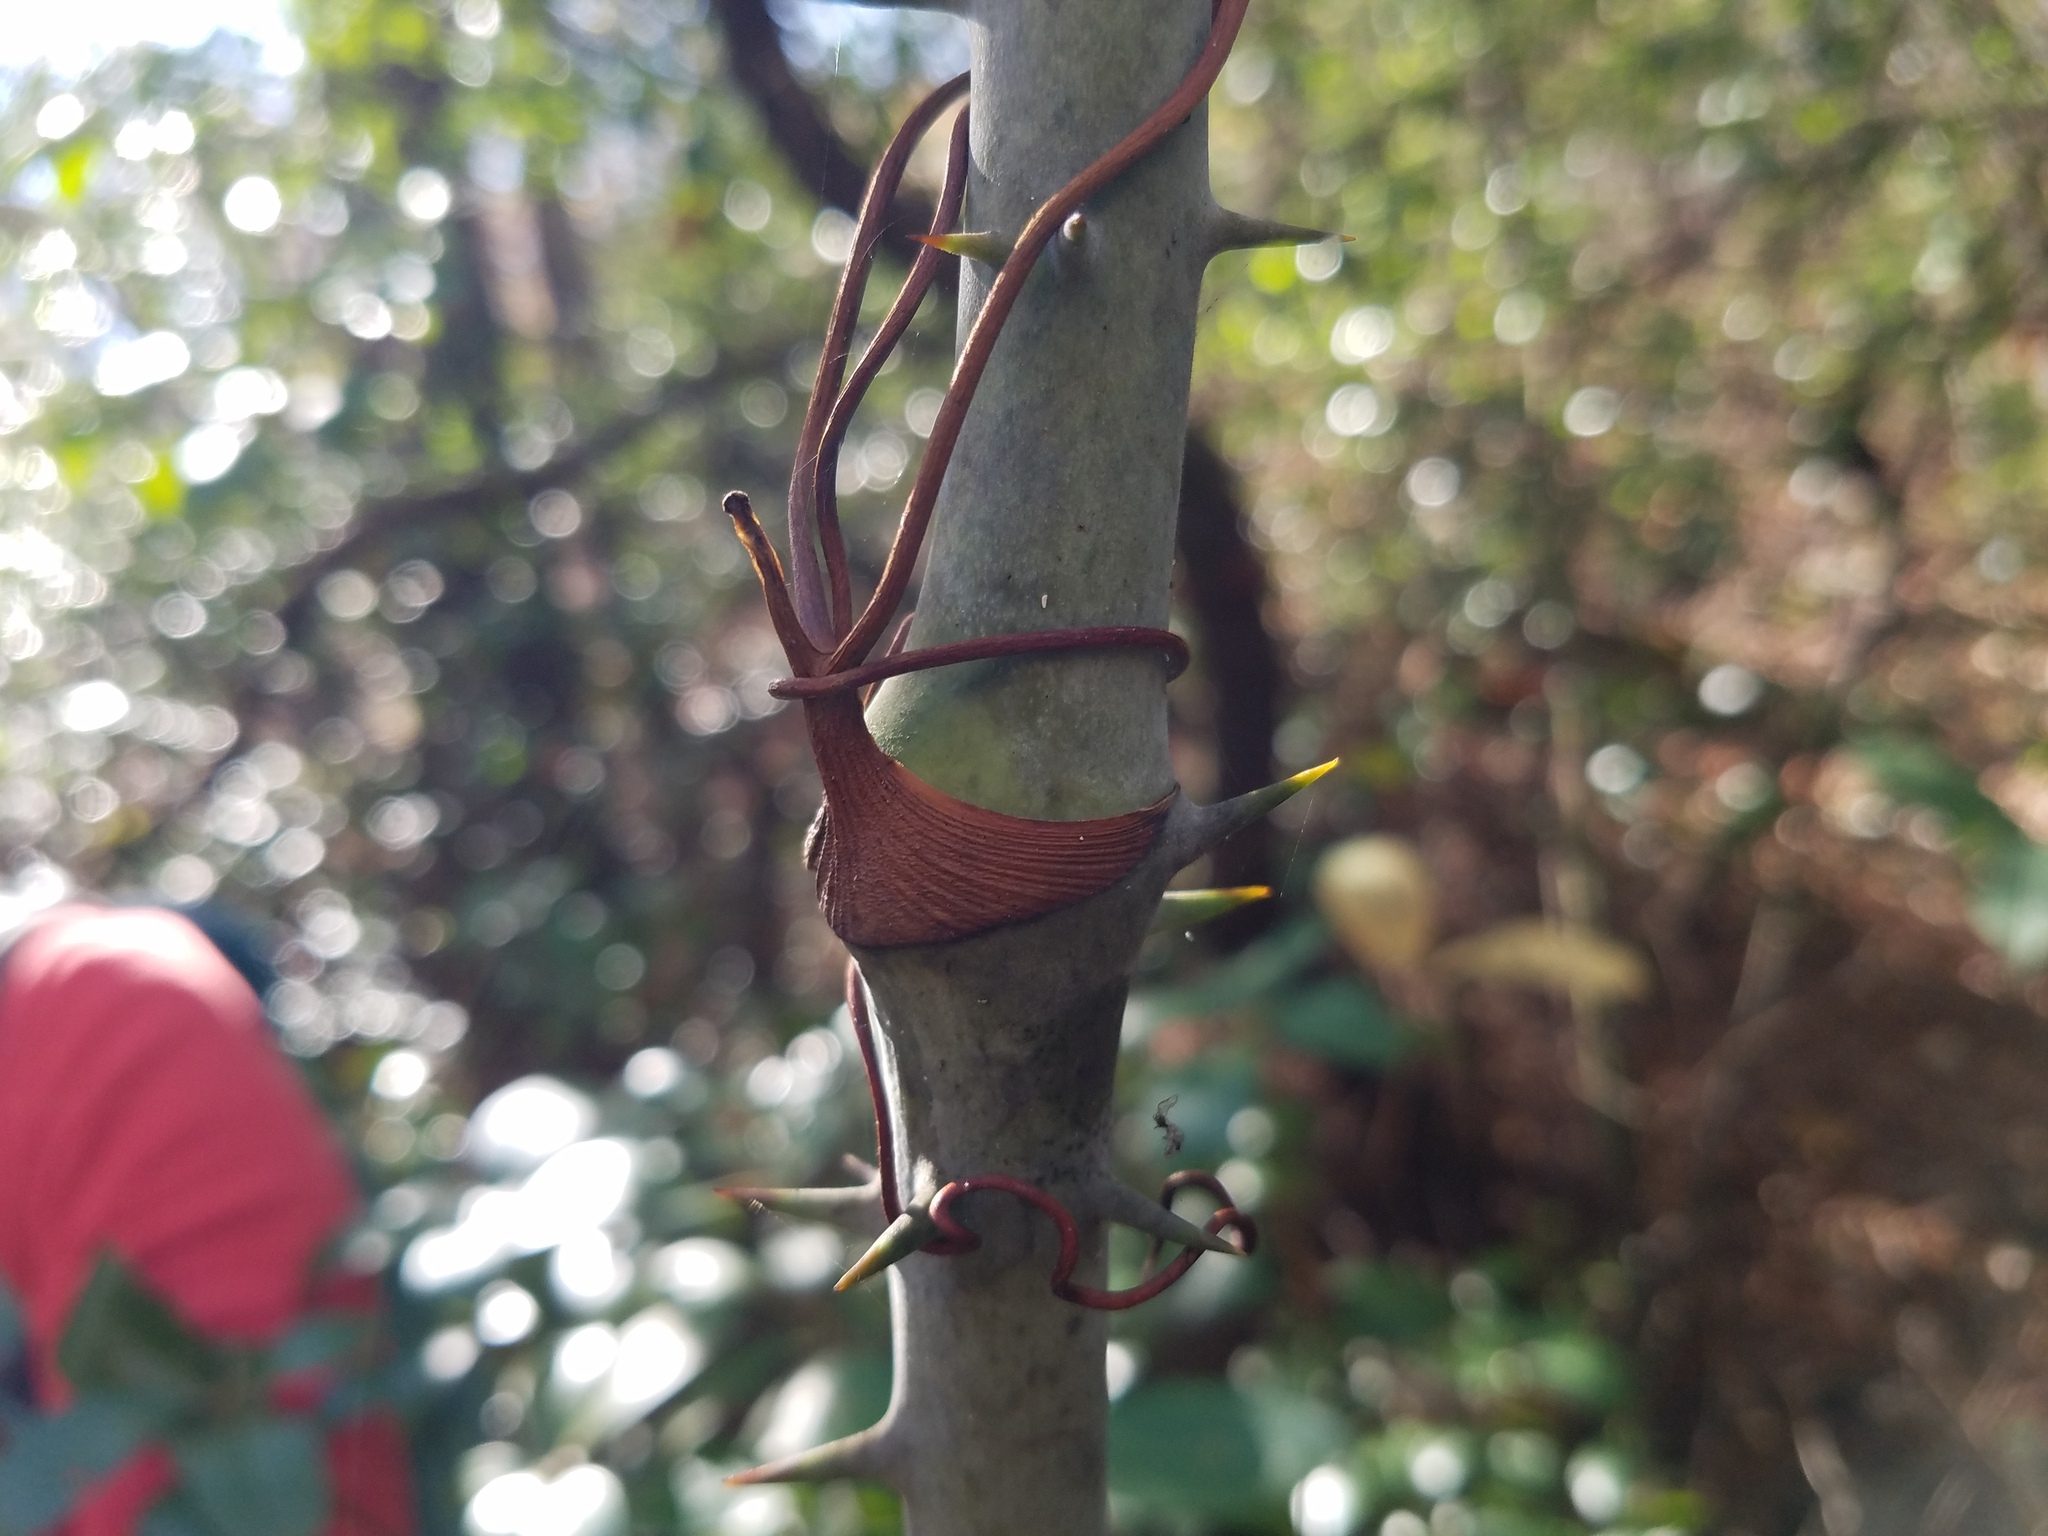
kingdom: Plantae
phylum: Tracheophyta
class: Liliopsida
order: Liliales
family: Smilacaceae
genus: Smilax
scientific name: Smilax laurifolia
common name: Bamboovine
